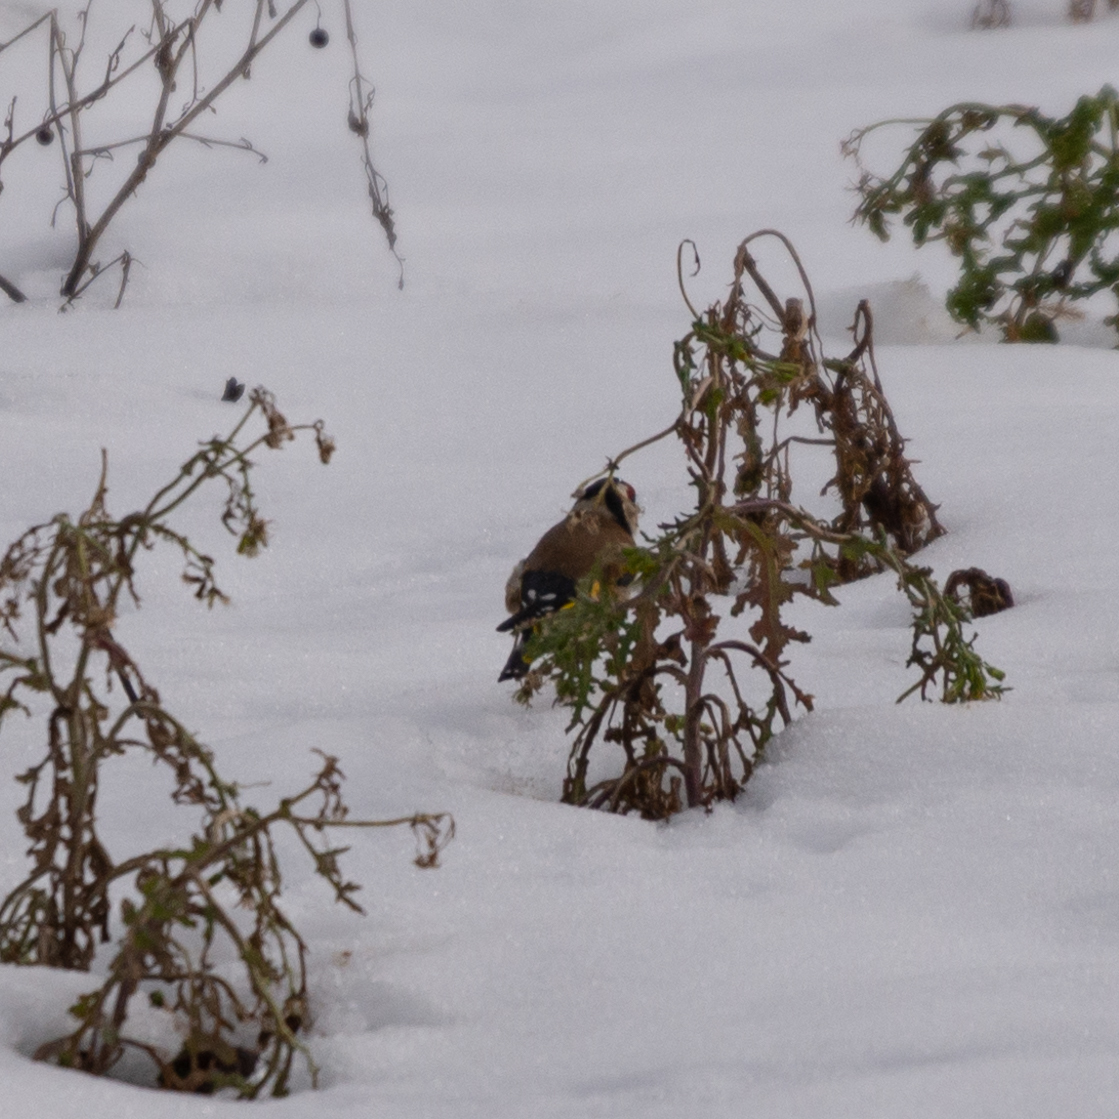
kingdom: Animalia
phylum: Chordata
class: Aves
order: Passeriformes
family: Fringillidae
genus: Carduelis
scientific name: Carduelis carduelis
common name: European goldfinch
